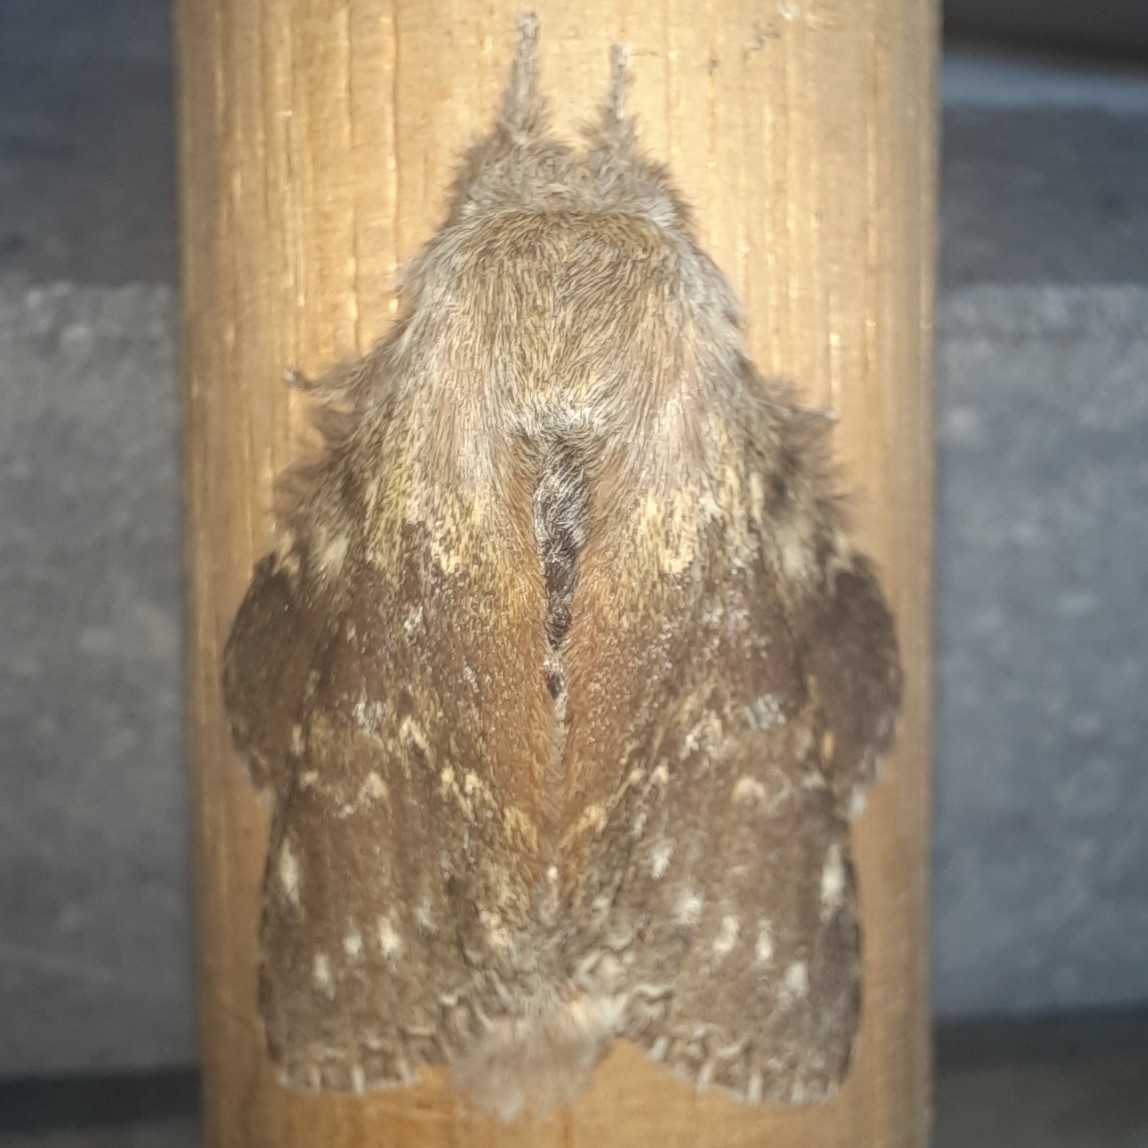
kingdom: Animalia
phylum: Arthropoda
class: Insecta
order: Lepidoptera
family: Notodontidae
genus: Stauropus
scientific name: Stauropus fagi
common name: Lobster moth
